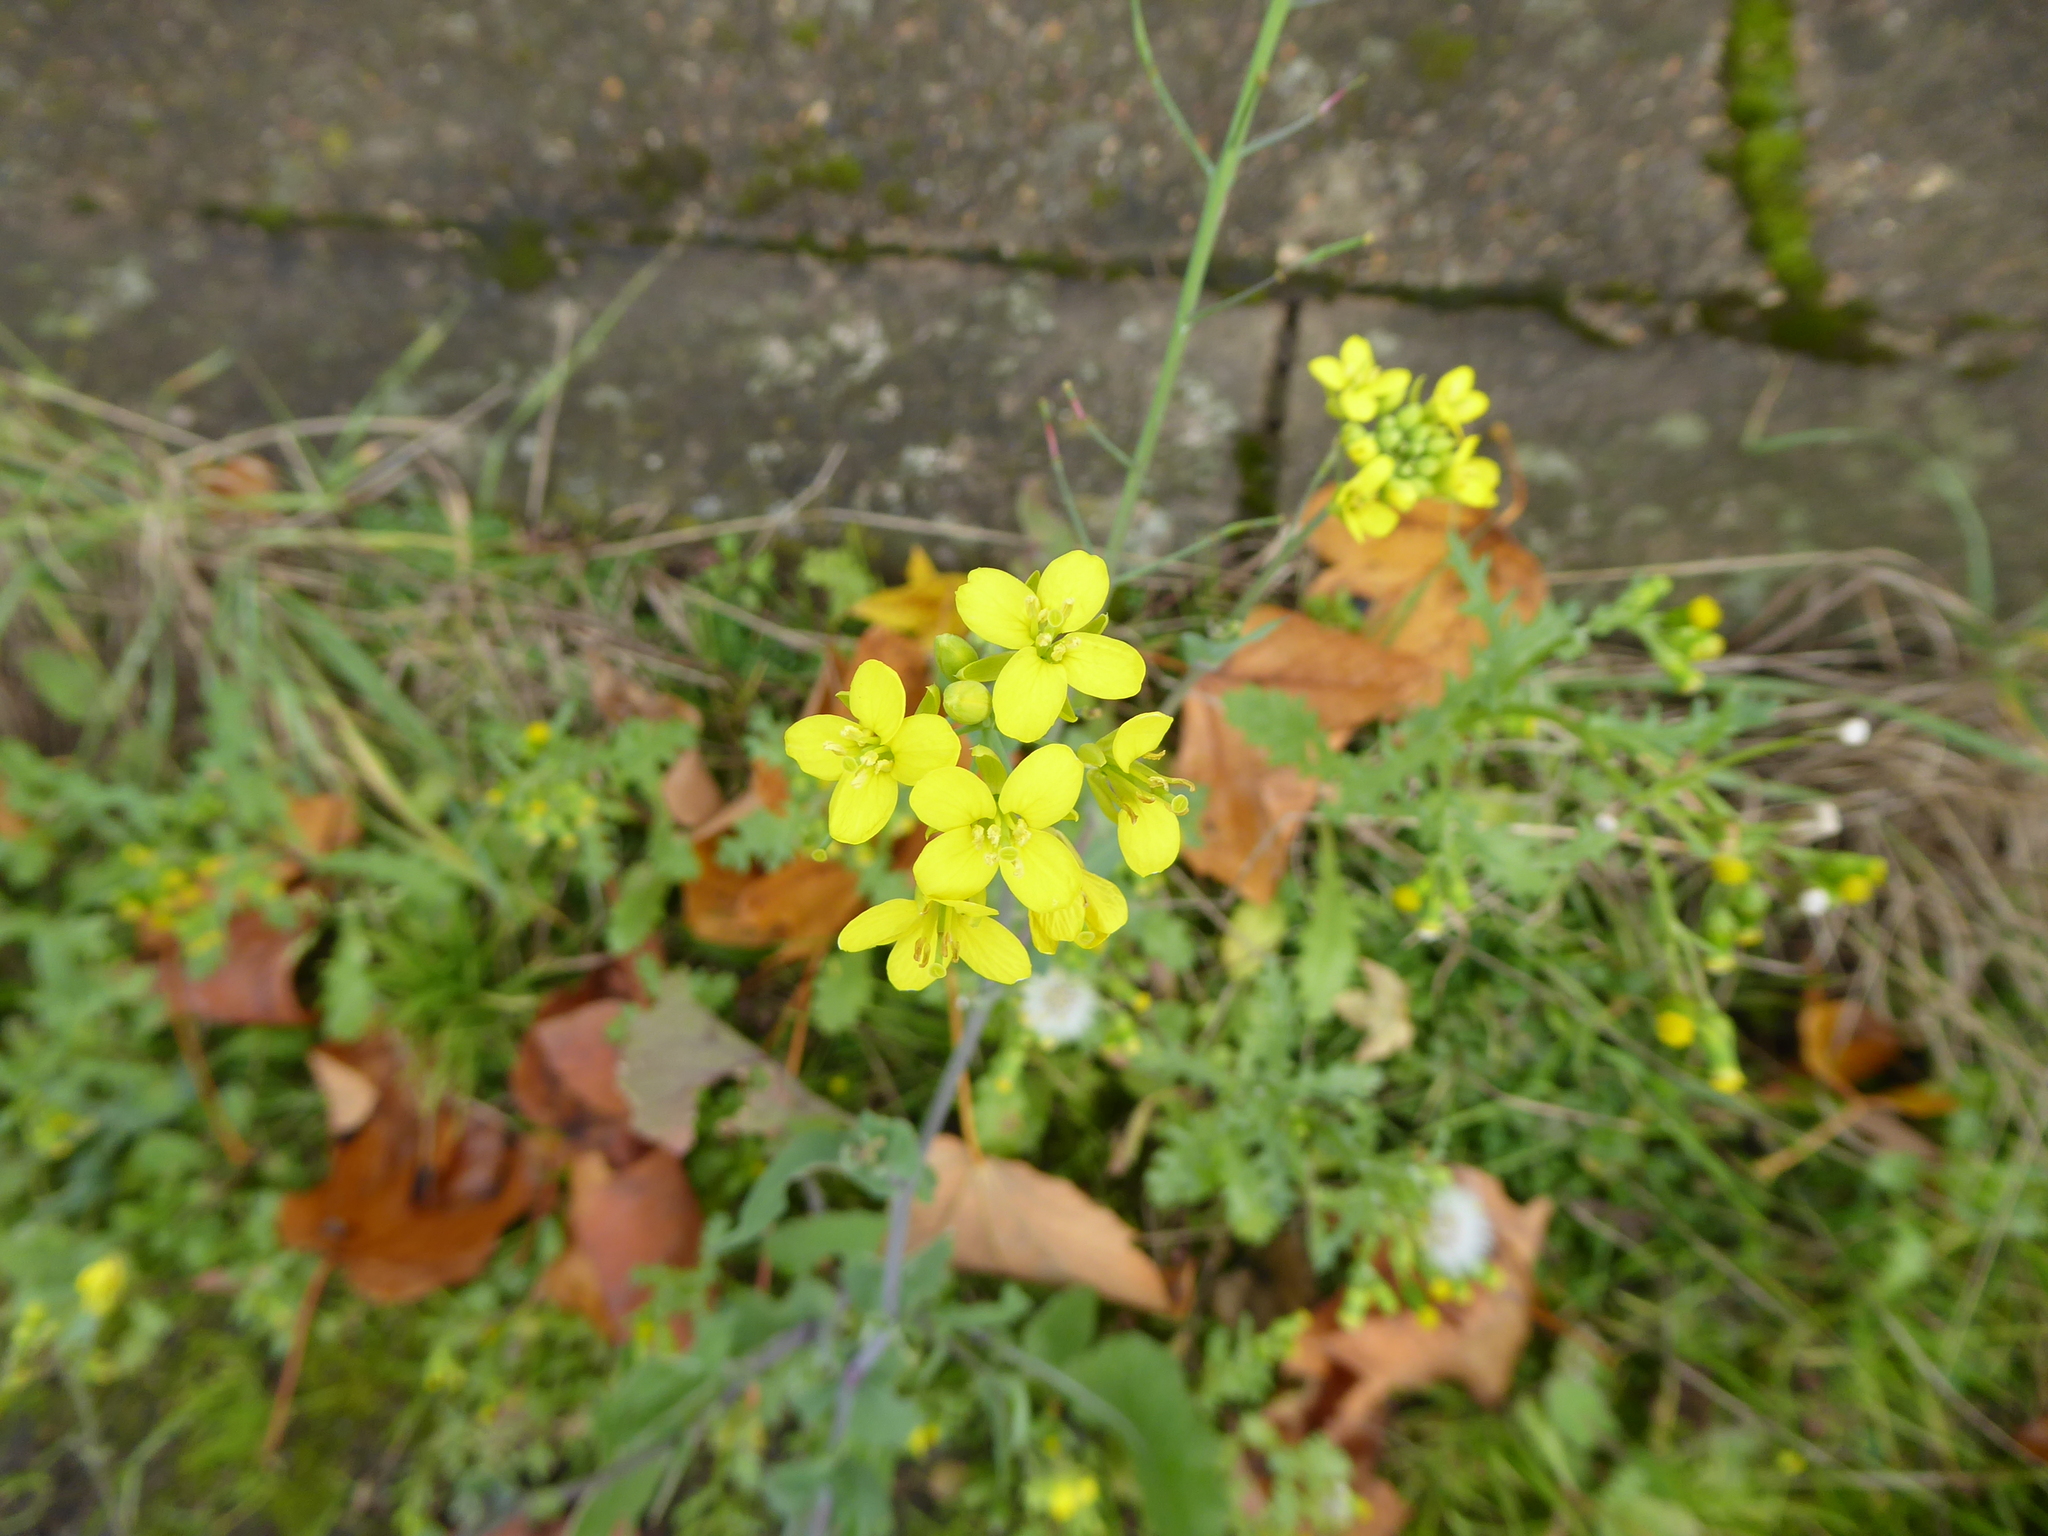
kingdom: Plantae
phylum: Tracheophyta
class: Magnoliopsida
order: Brassicales
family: Brassicaceae
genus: Sinapis
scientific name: Sinapis arvensis
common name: Charlock
